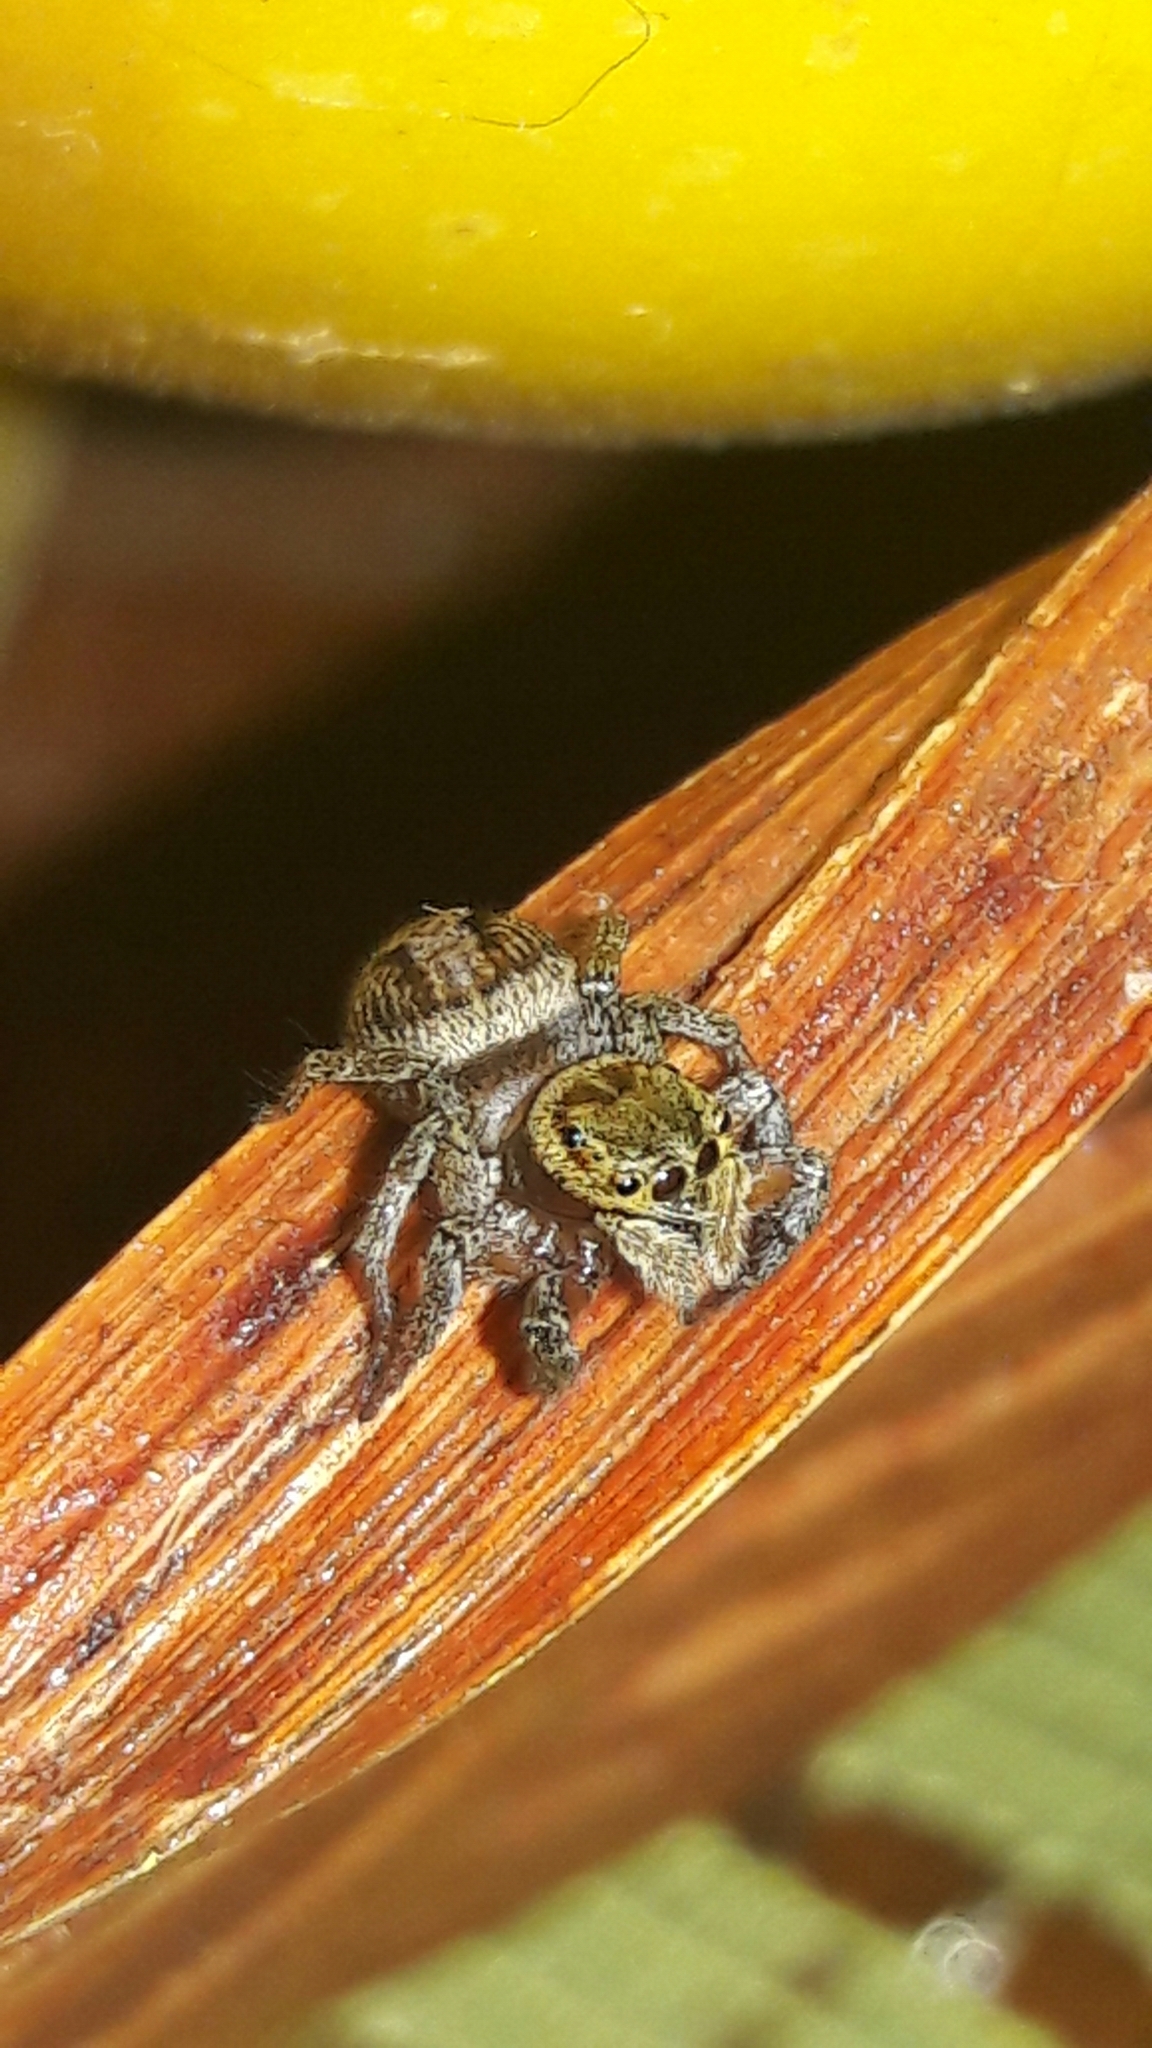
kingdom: Animalia
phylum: Arthropoda
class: Arachnida
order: Araneae
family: Salticidae
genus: Hasarius
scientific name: Hasarius adansoni
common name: Jumping spider
